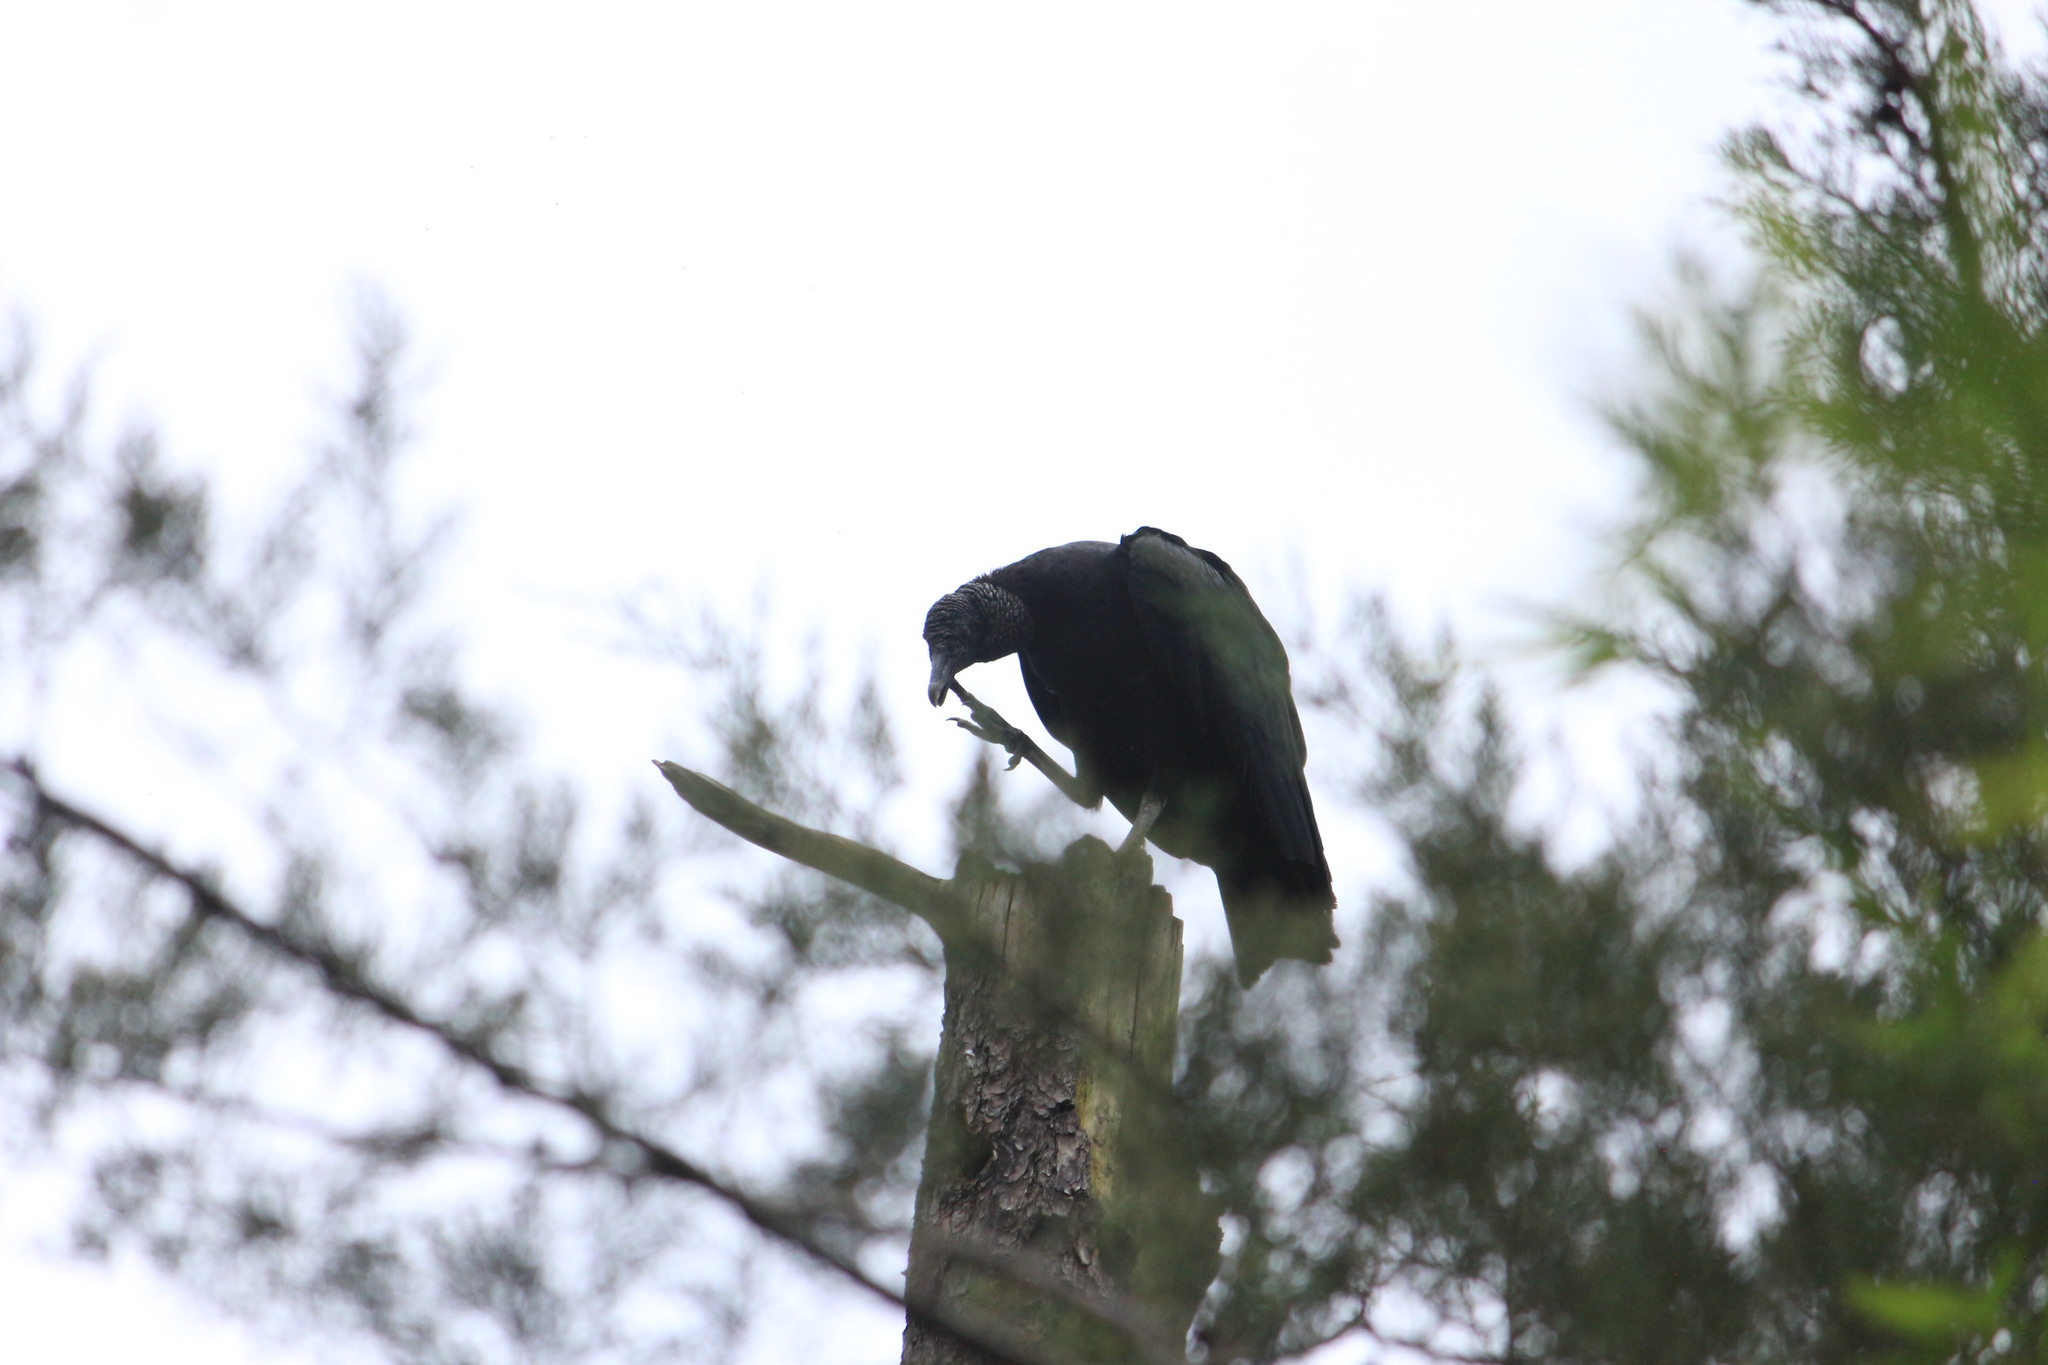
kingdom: Animalia
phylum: Chordata
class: Aves
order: Accipitriformes
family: Cathartidae
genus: Coragyps
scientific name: Coragyps atratus
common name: Black vulture
